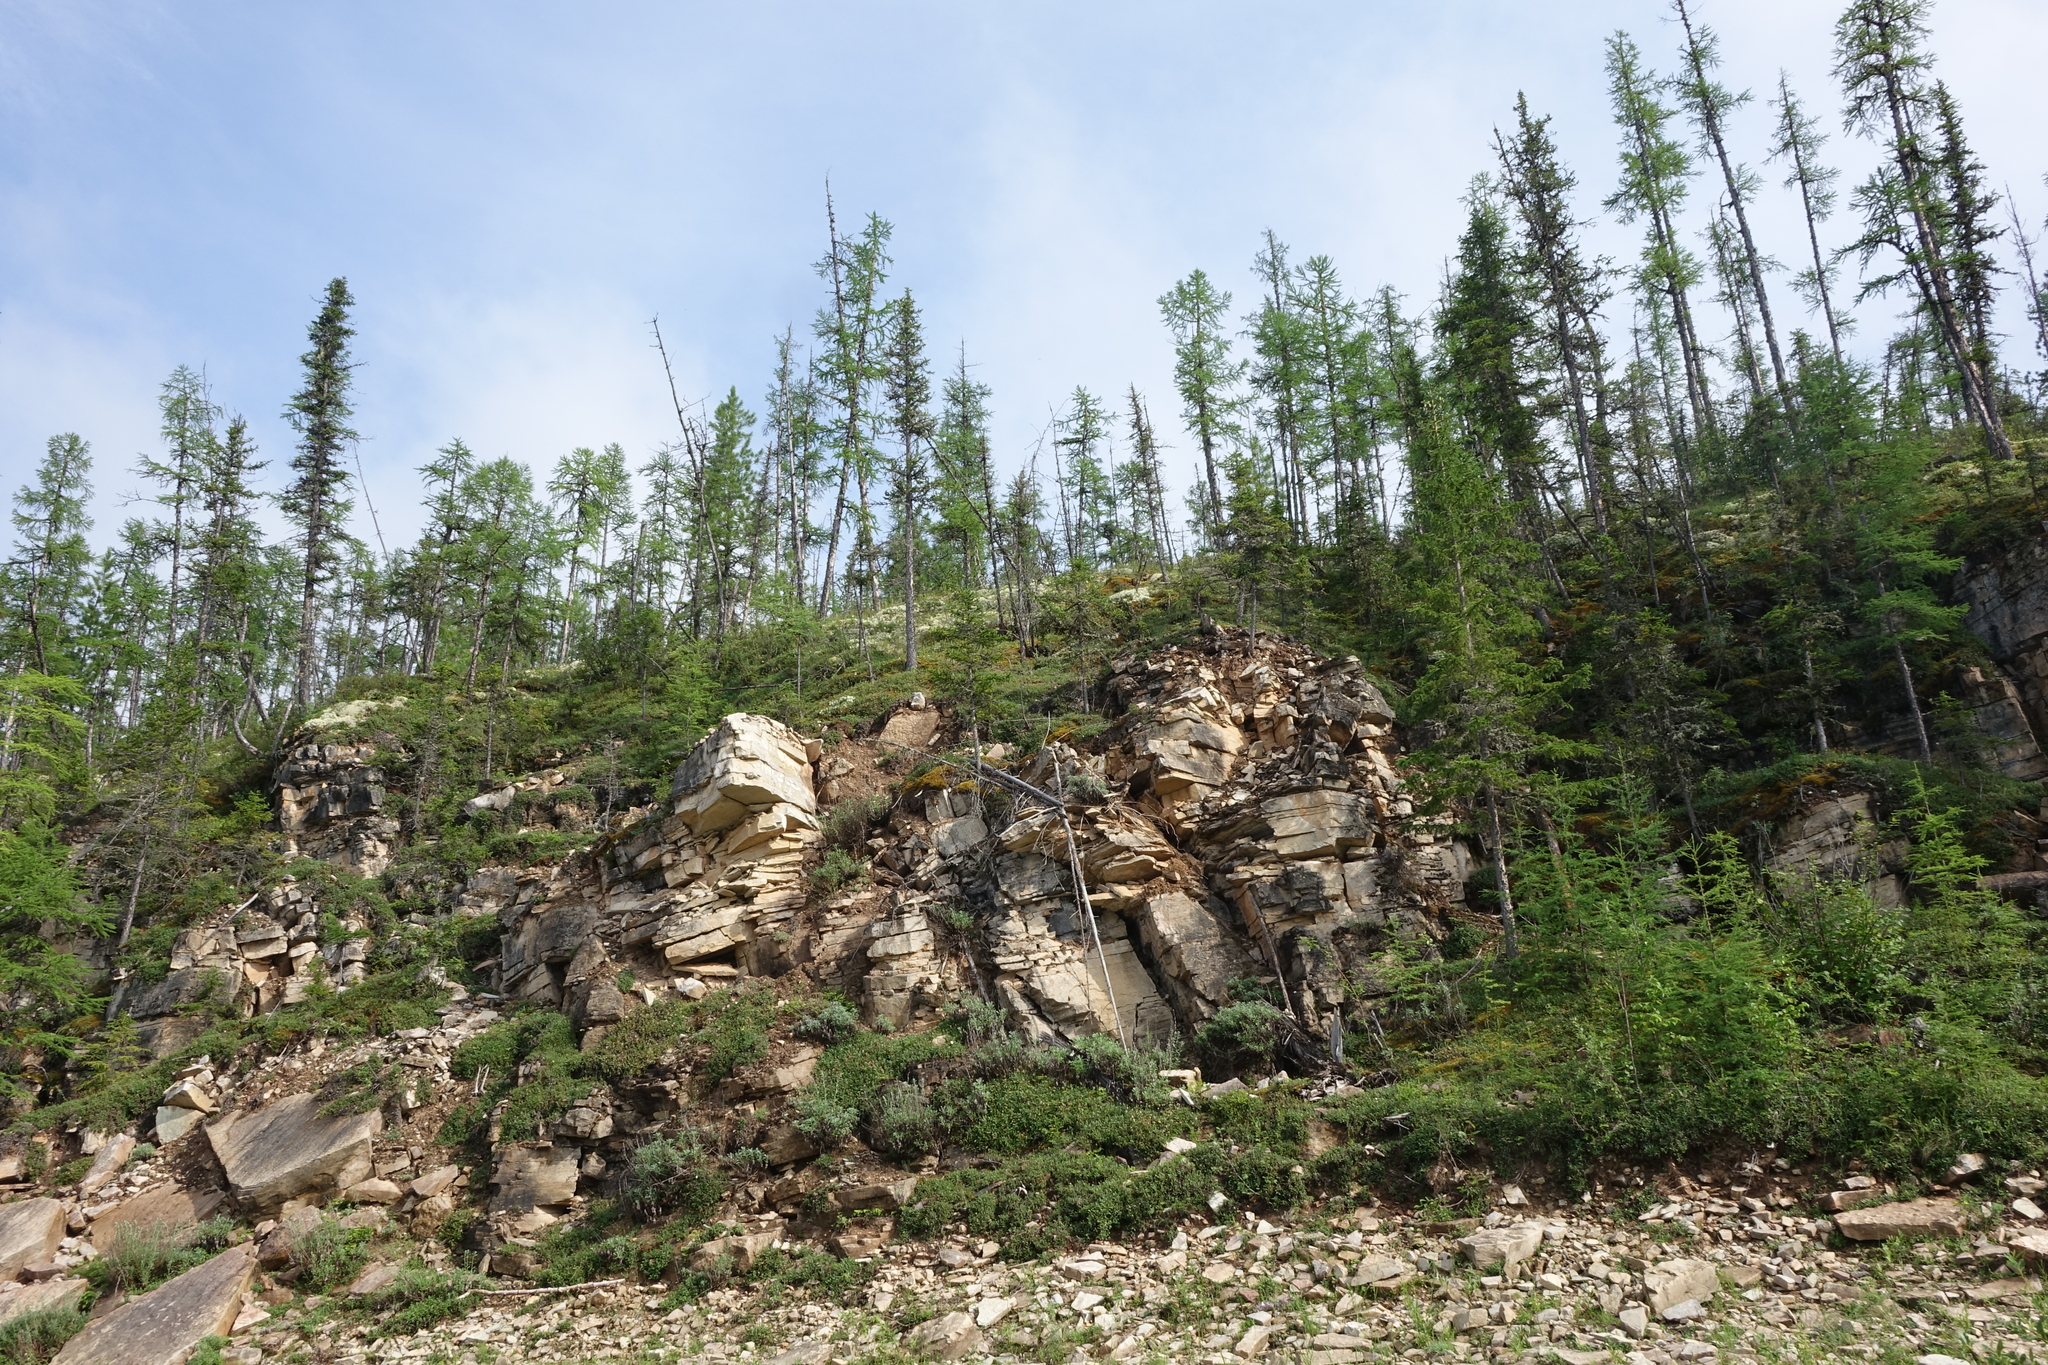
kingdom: Plantae
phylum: Tracheophyta
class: Pinopsida
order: Pinales
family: Pinaceae
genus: Larix
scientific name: Larix gmelinii
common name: Dahurian larch
